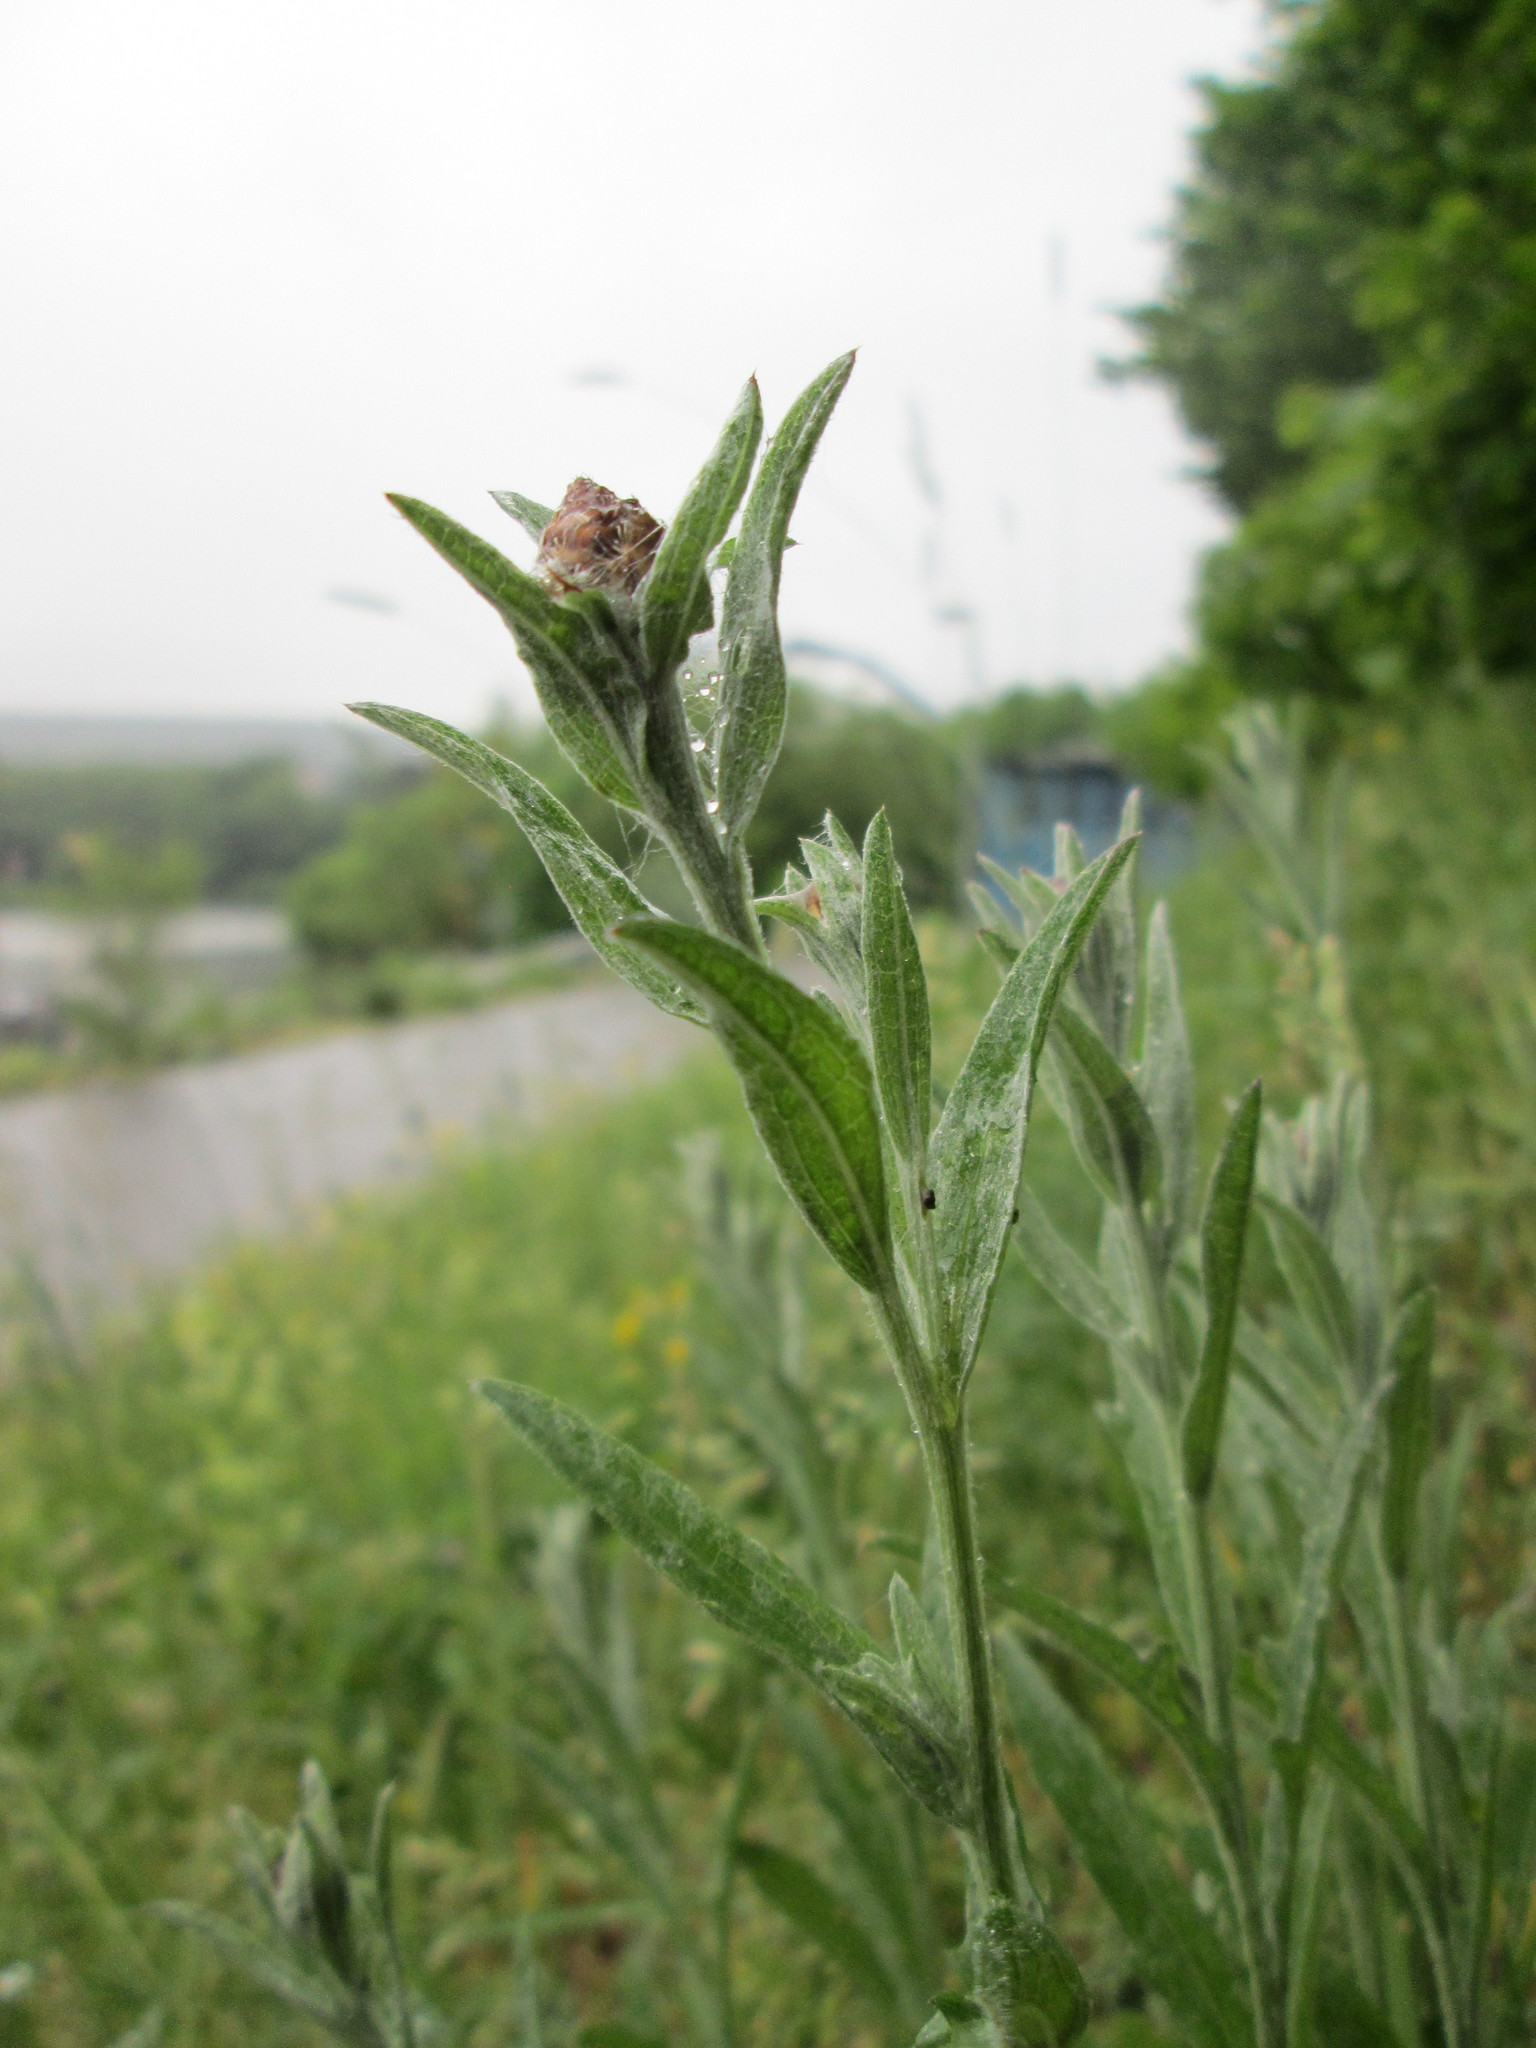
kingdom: Plantae
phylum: Tracheophyta
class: Magnoliopsida
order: Asterales
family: Asteraceae
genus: Centaurea
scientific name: Centaurea jacea
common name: Brown knapweed
